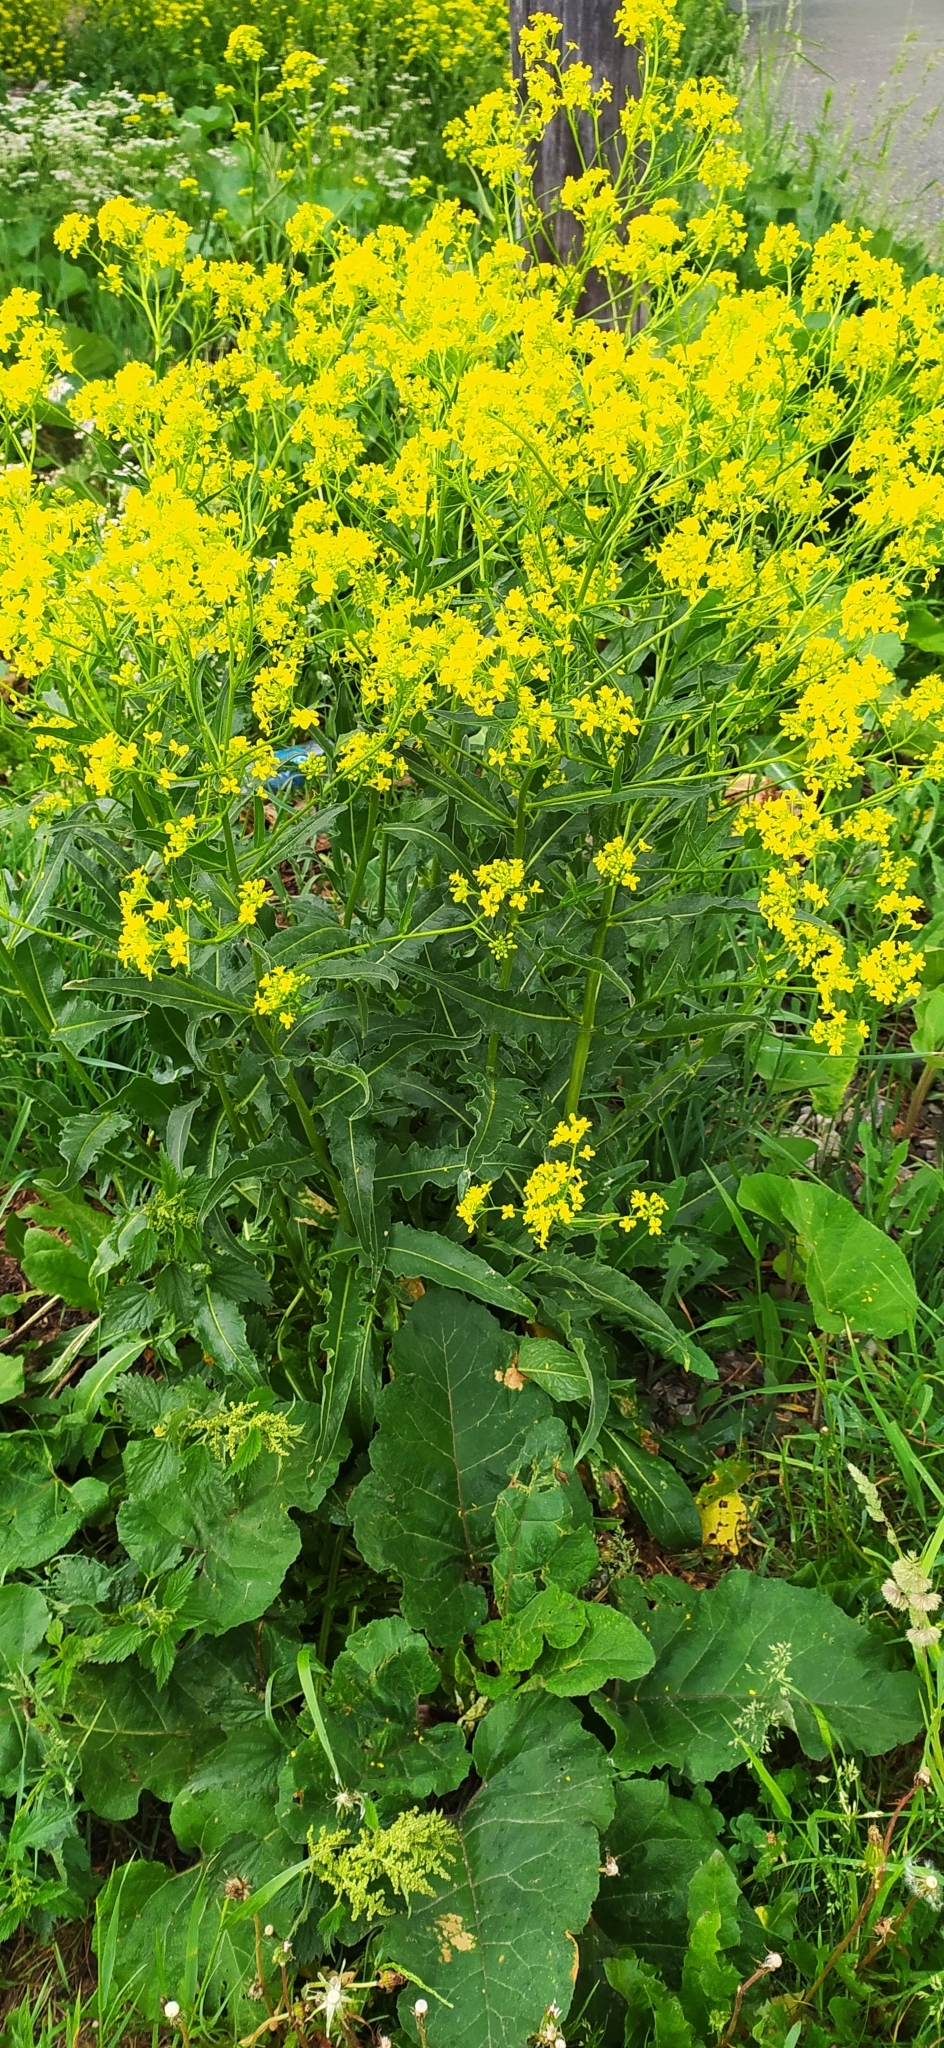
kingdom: Plantae
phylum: Tracheophyta
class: Magnoliopsida
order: Brassicales
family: Brassicaceae
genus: Bunias
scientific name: Bunias orientalis
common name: Warty-cabbage
